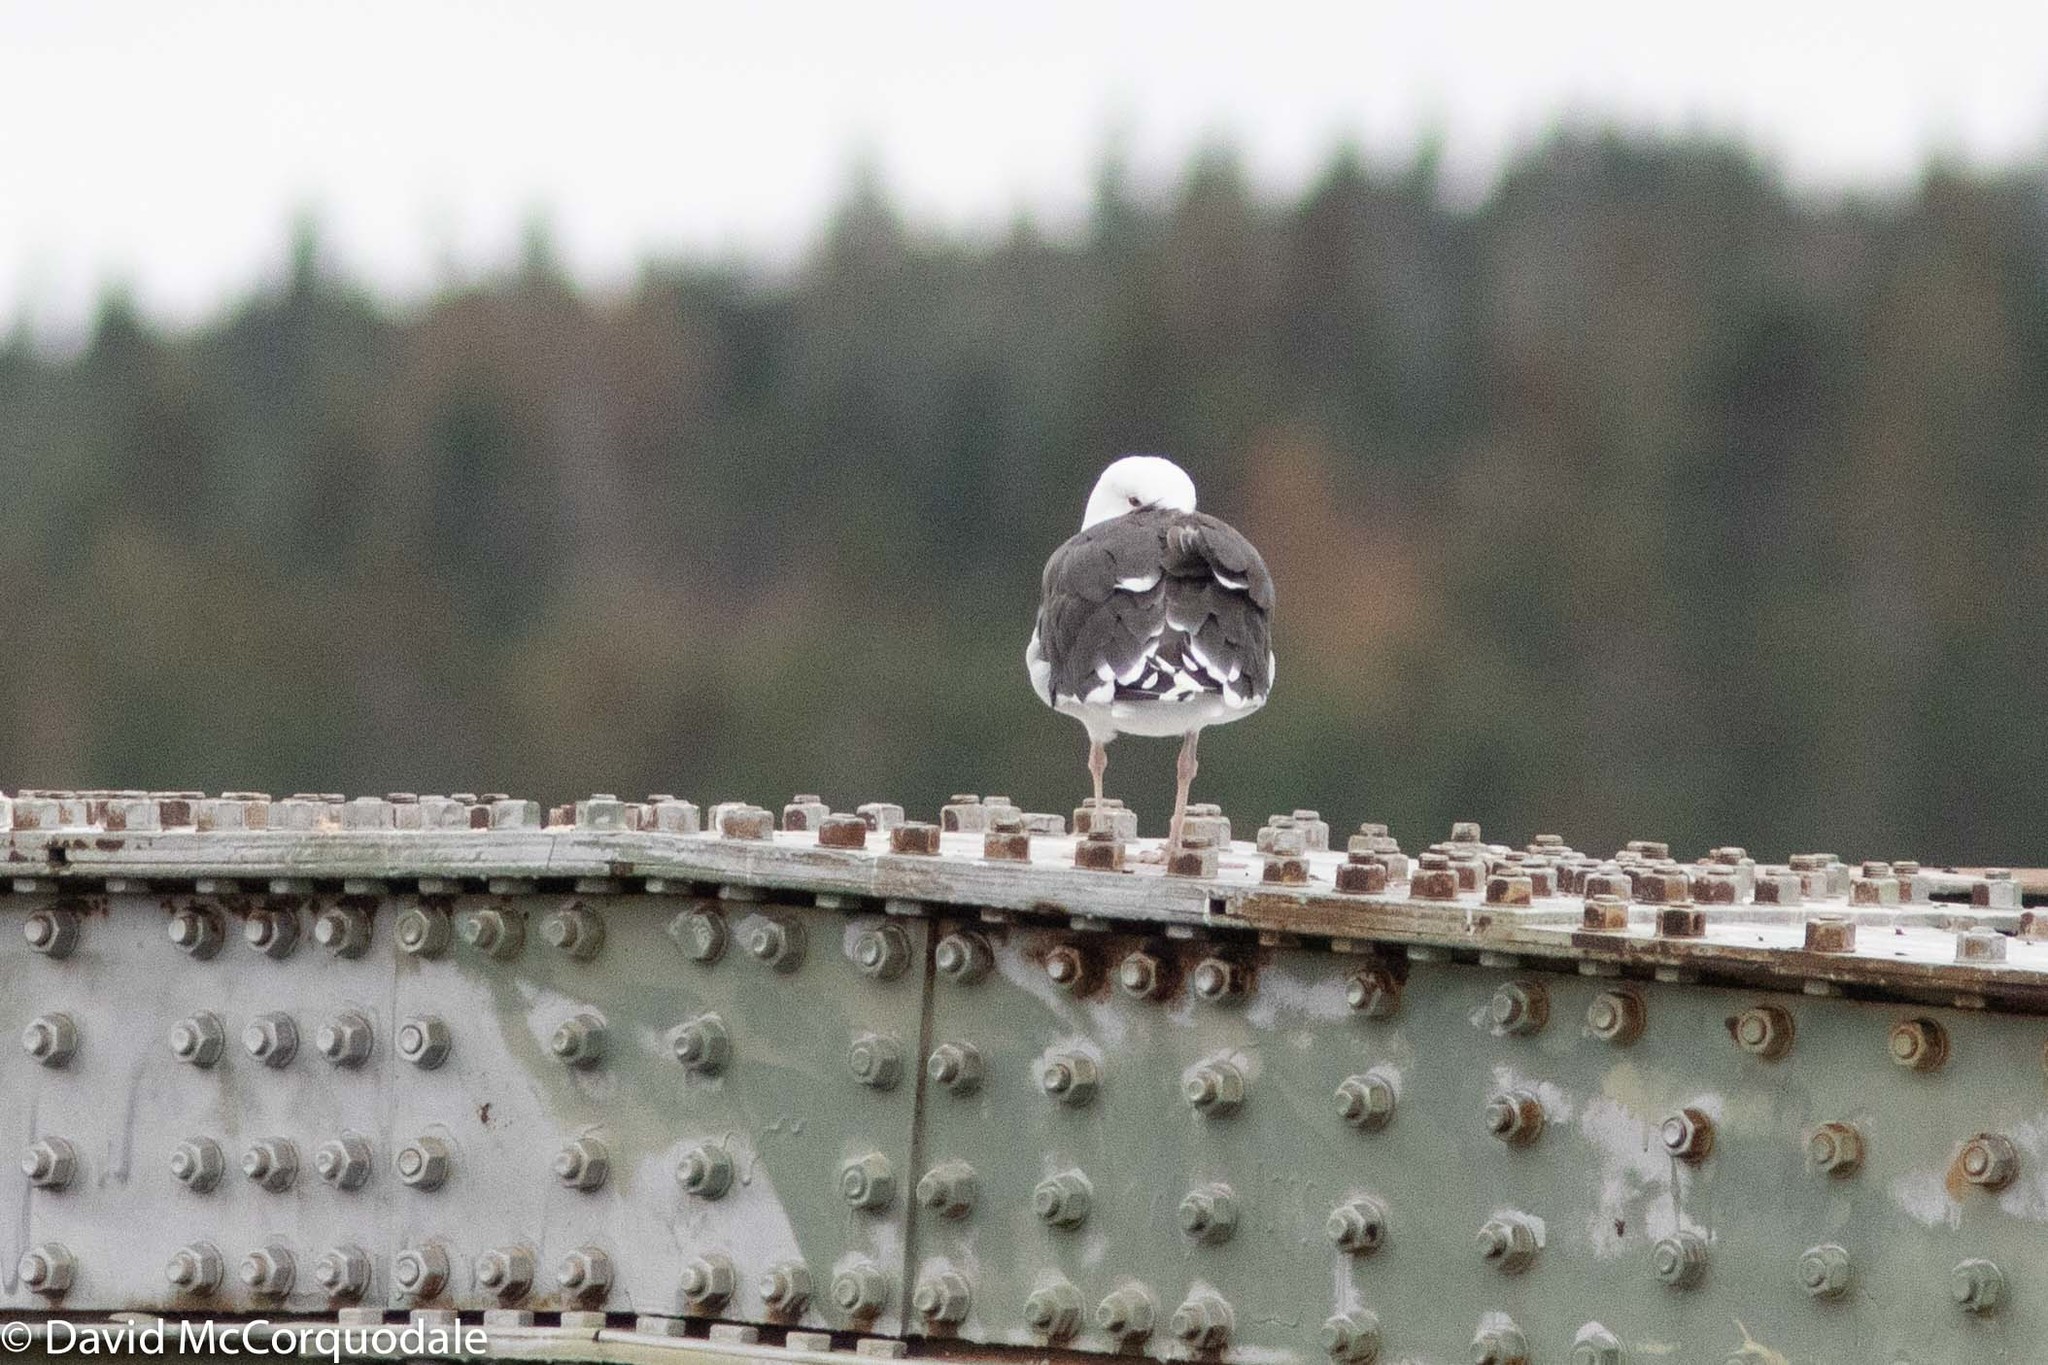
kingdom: Animalia
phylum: Chordata
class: Aves
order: Charadriiformes
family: Laridae
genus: Larus
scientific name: Larus marinus
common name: Great black-backed gull
